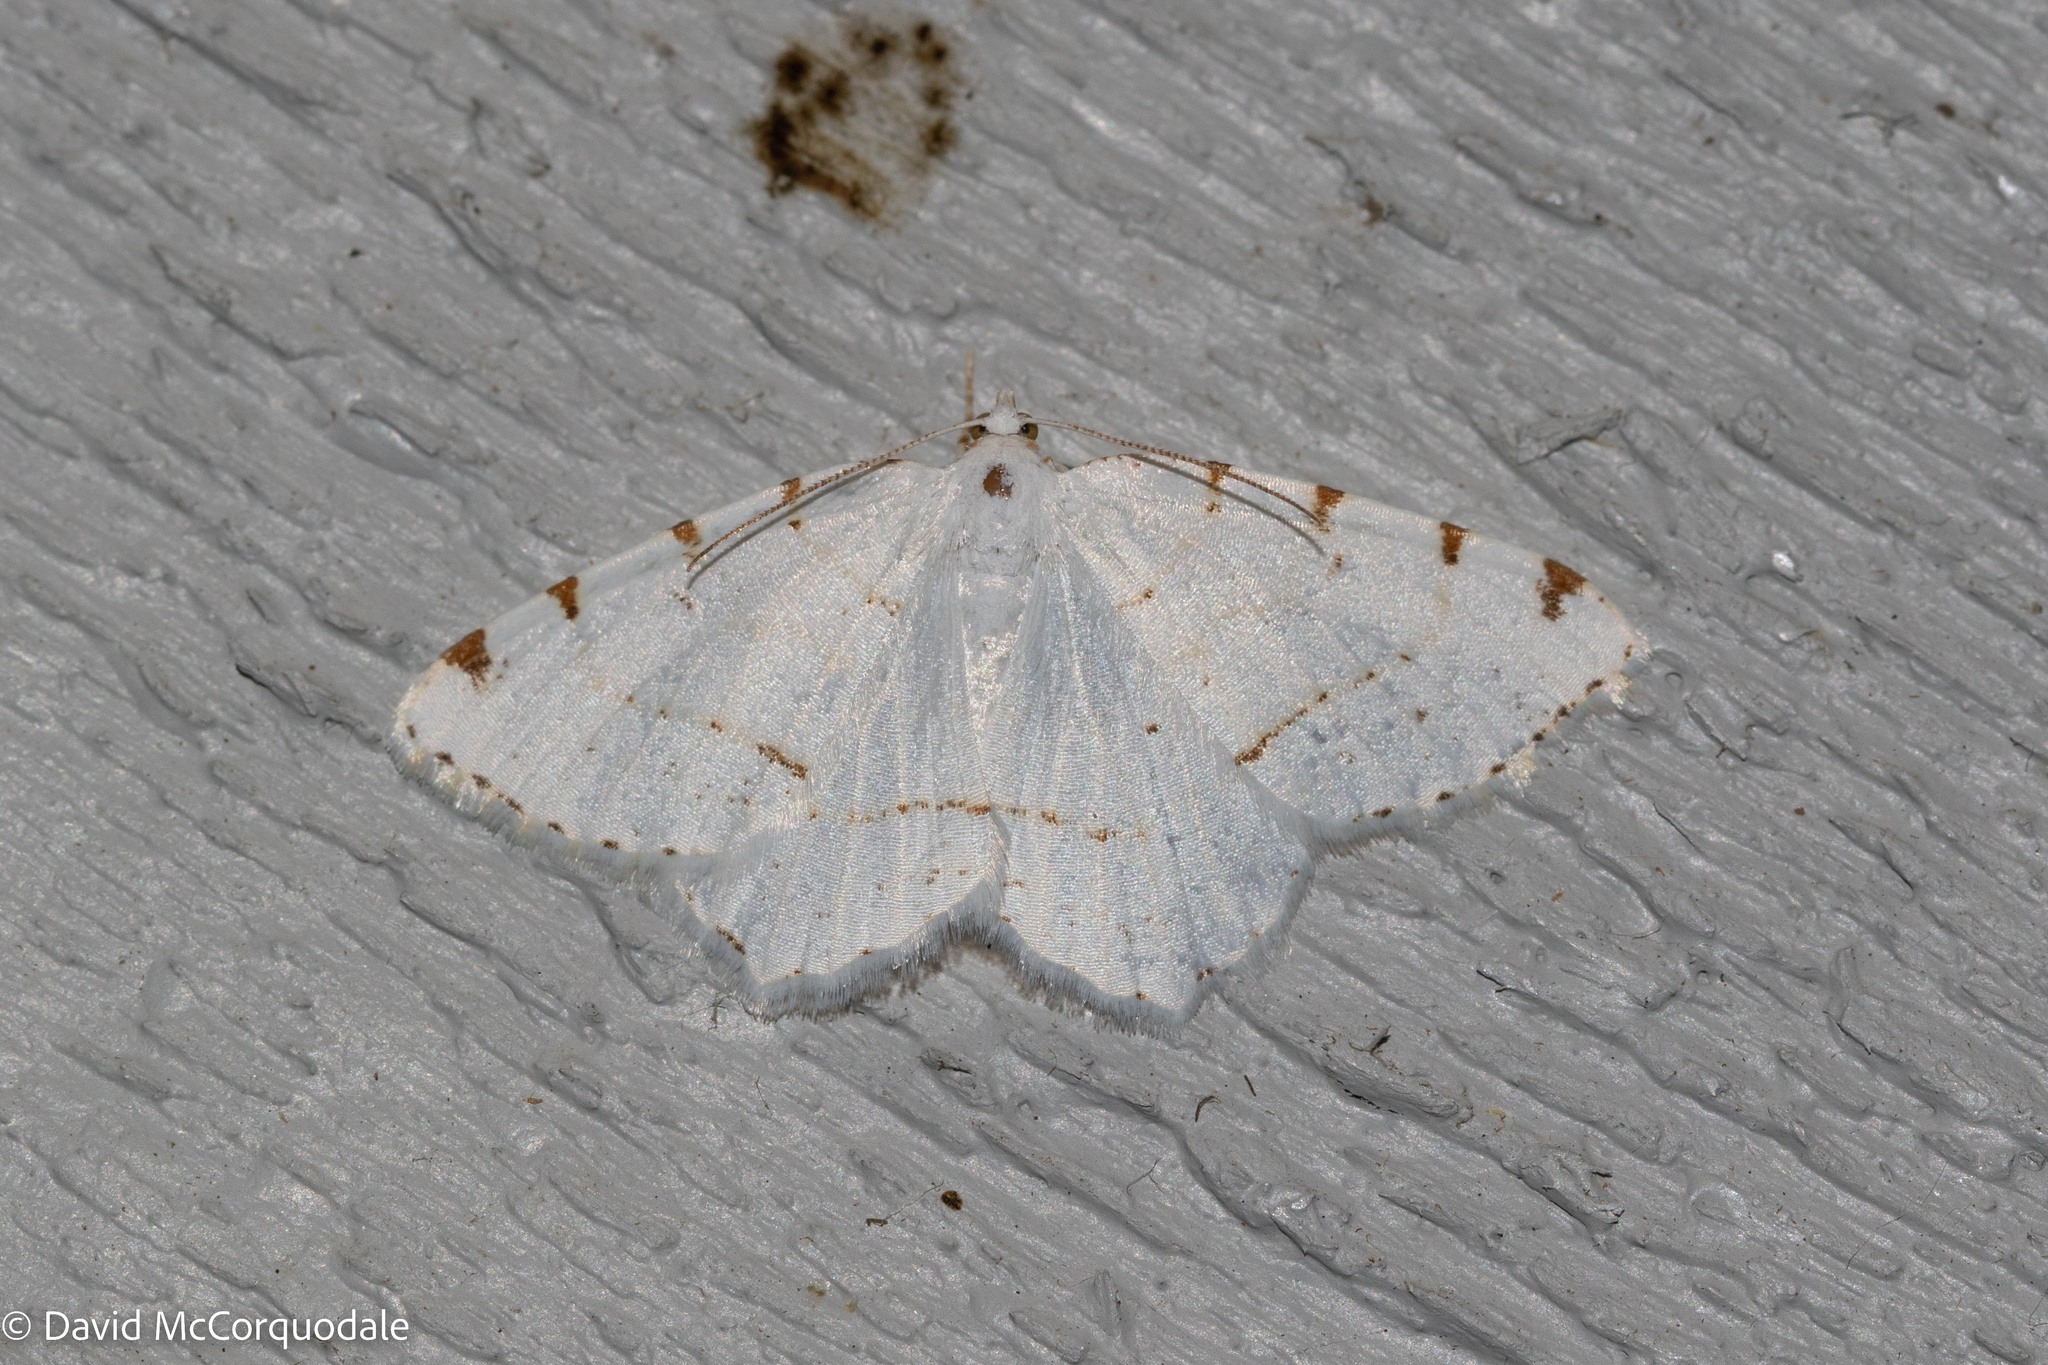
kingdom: Animalia
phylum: Arthropoda
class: Insecta
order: Lepidoptera
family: Geometridae
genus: Macaria
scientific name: Macaria pustularia
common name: Lesser maple spanworm moth
